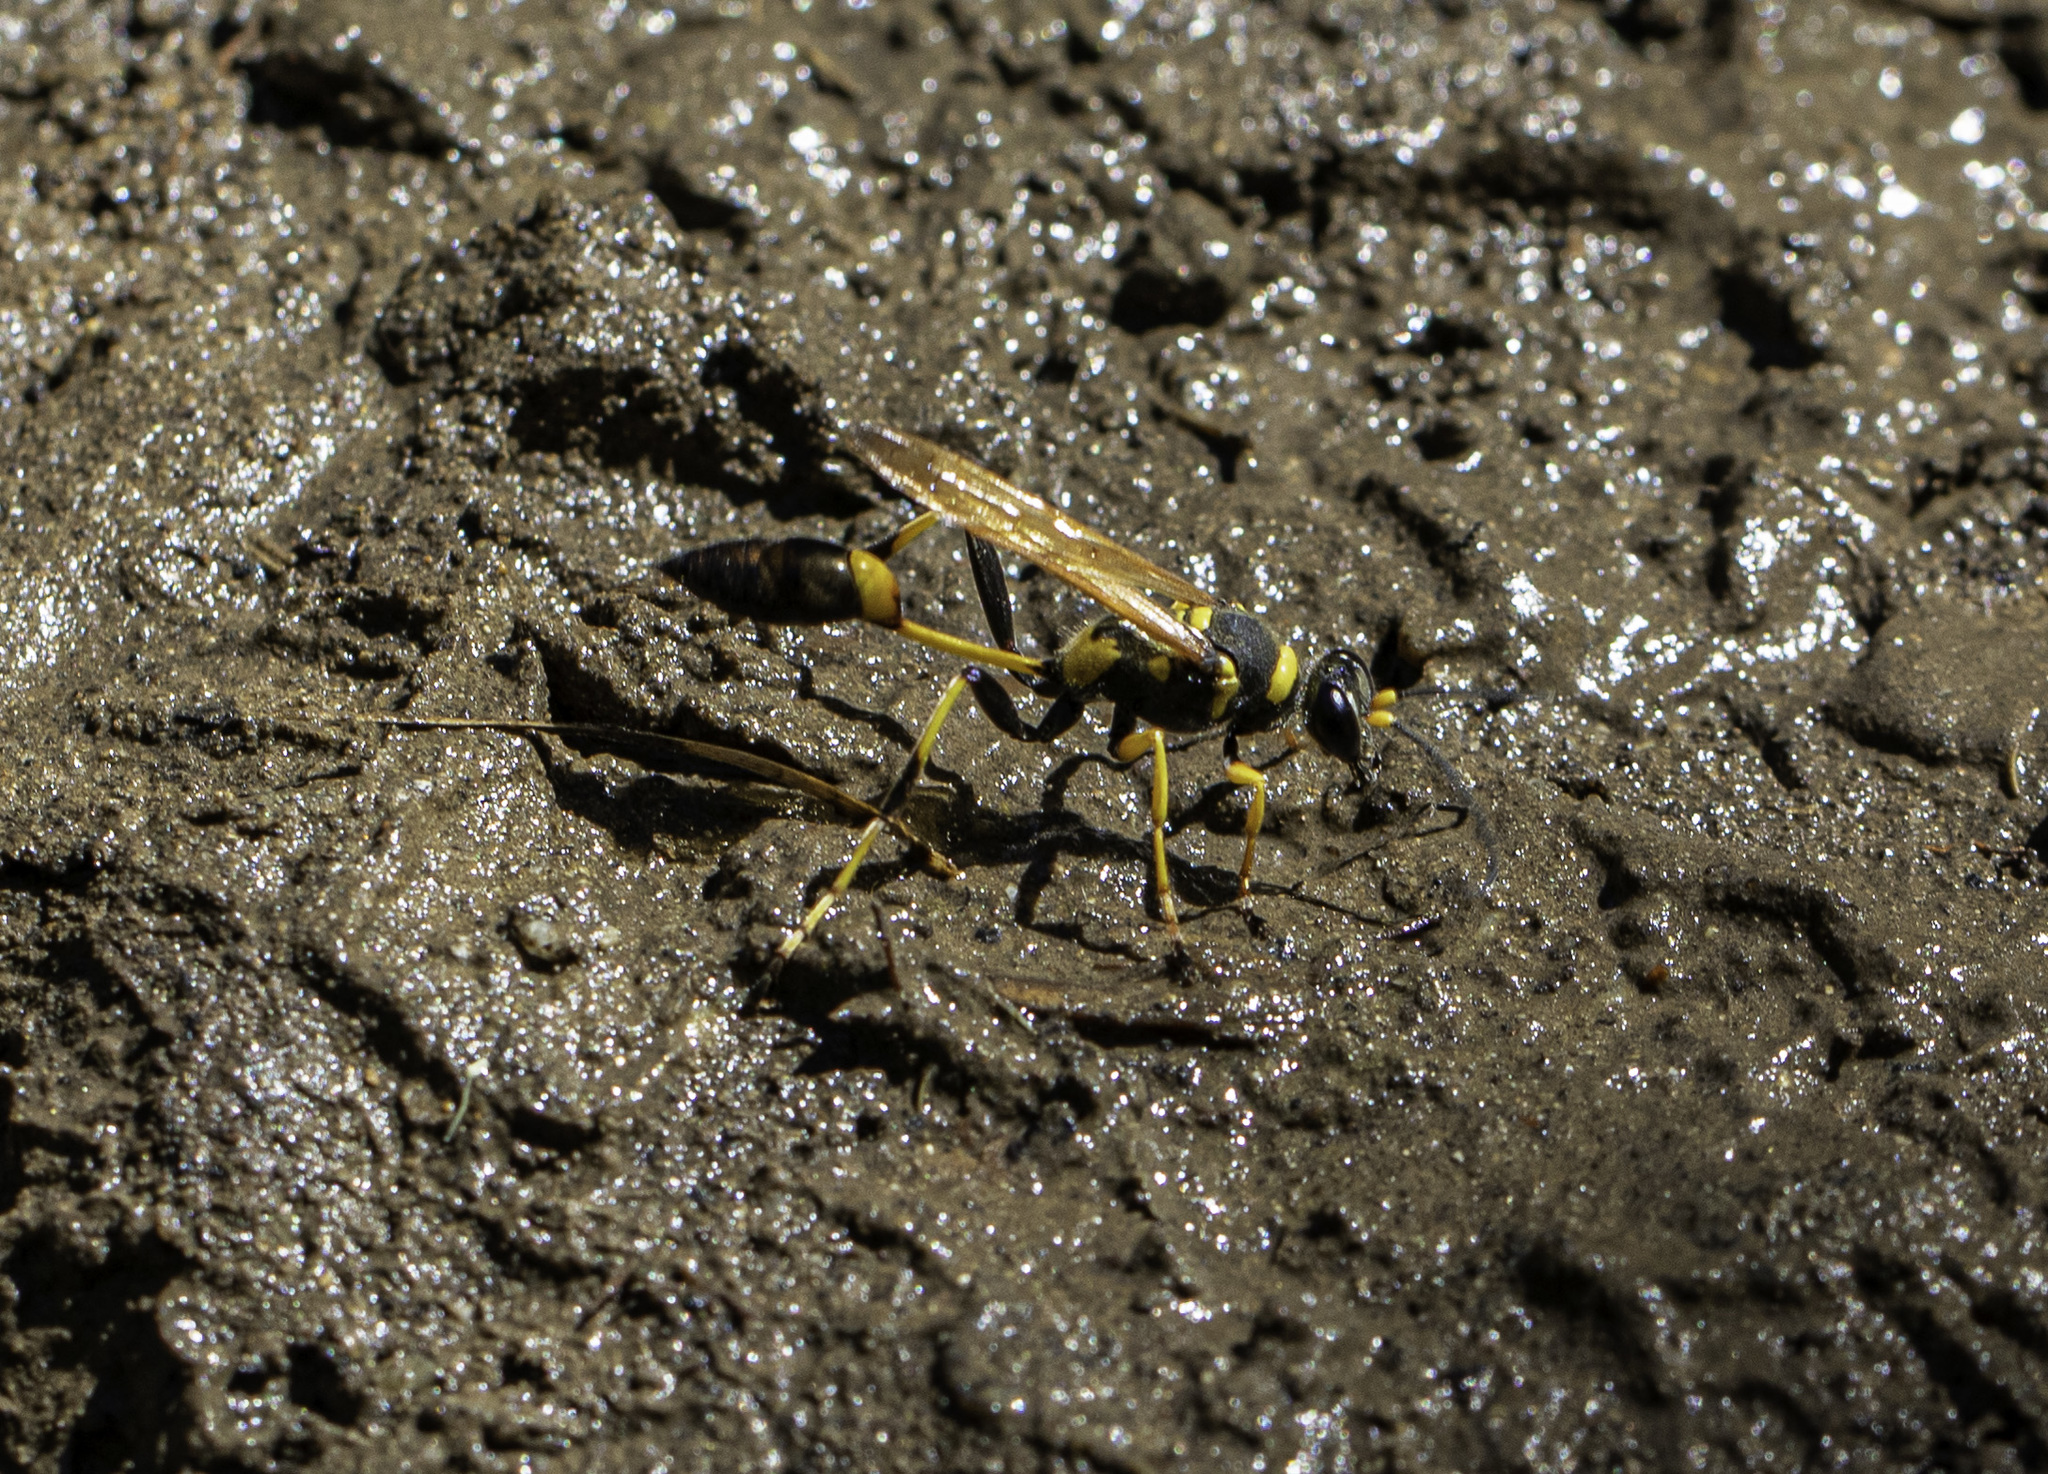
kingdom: Animalia
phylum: Arthropoda
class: Insecta
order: Hymenoptera
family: Sphecidae
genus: Sceliphron
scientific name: Sceliphron caementarium
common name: Mud dauber
